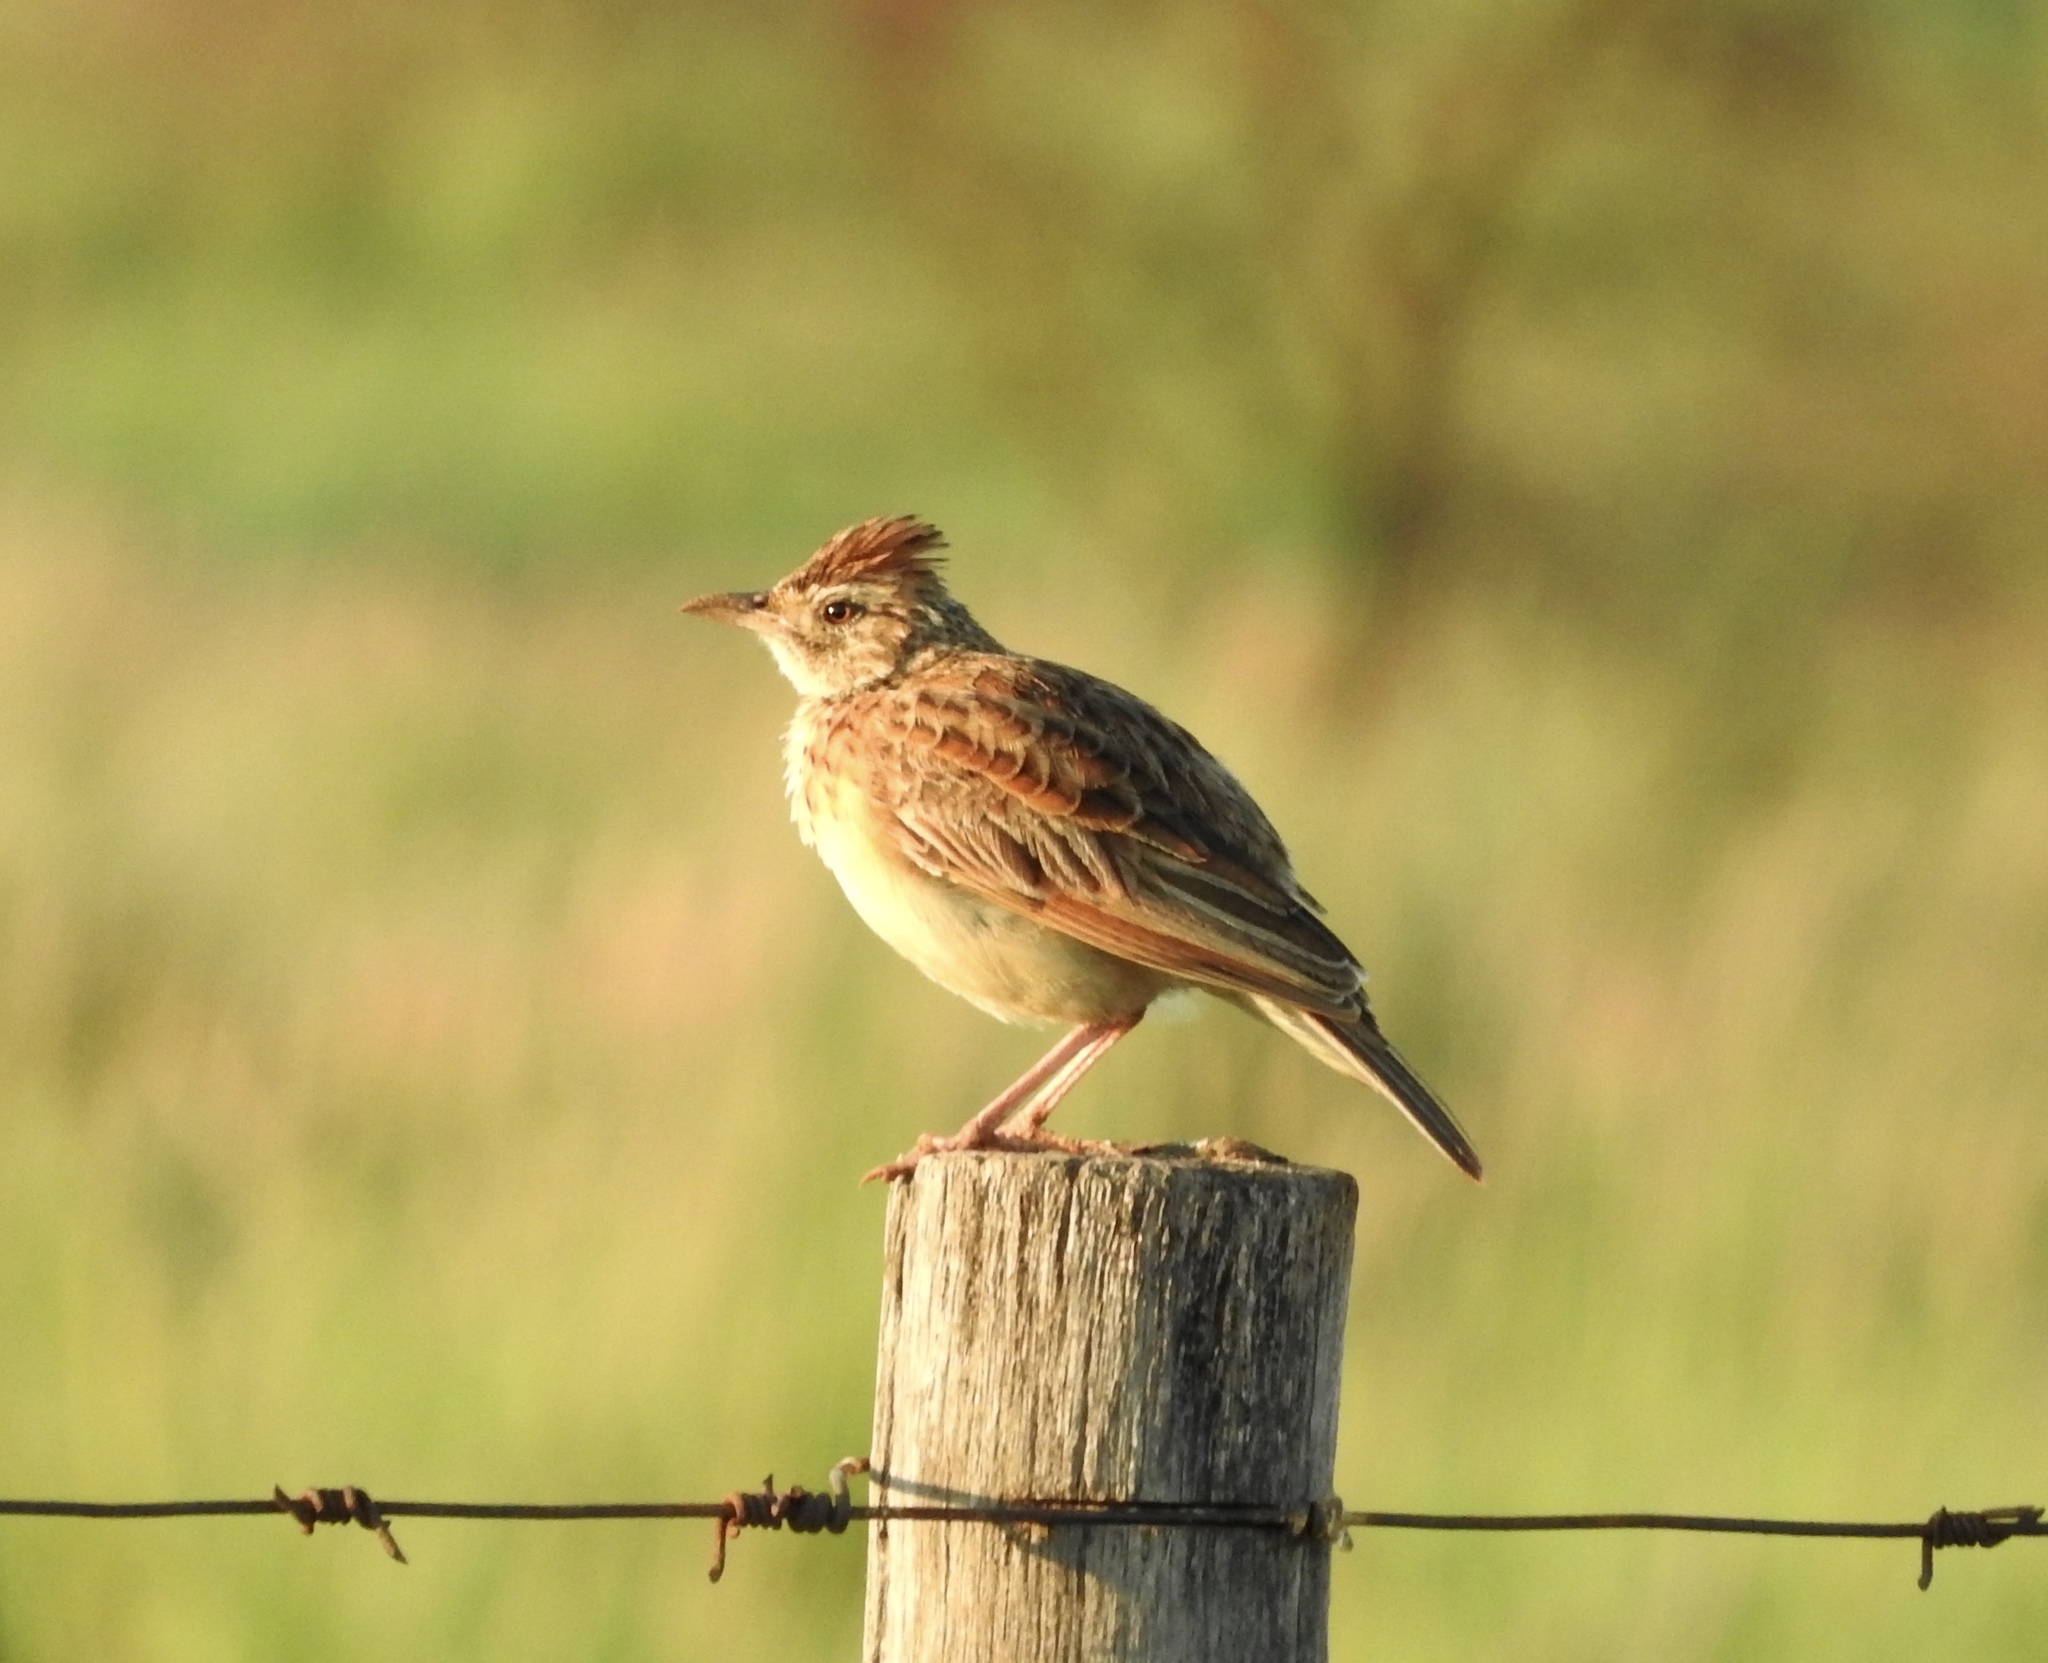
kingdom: Animalia
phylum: Chordata
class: Aves
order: Passeriformes
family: Alaudidae
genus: Mirafra
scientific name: Mirafra africana
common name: Rufous-naped lark
